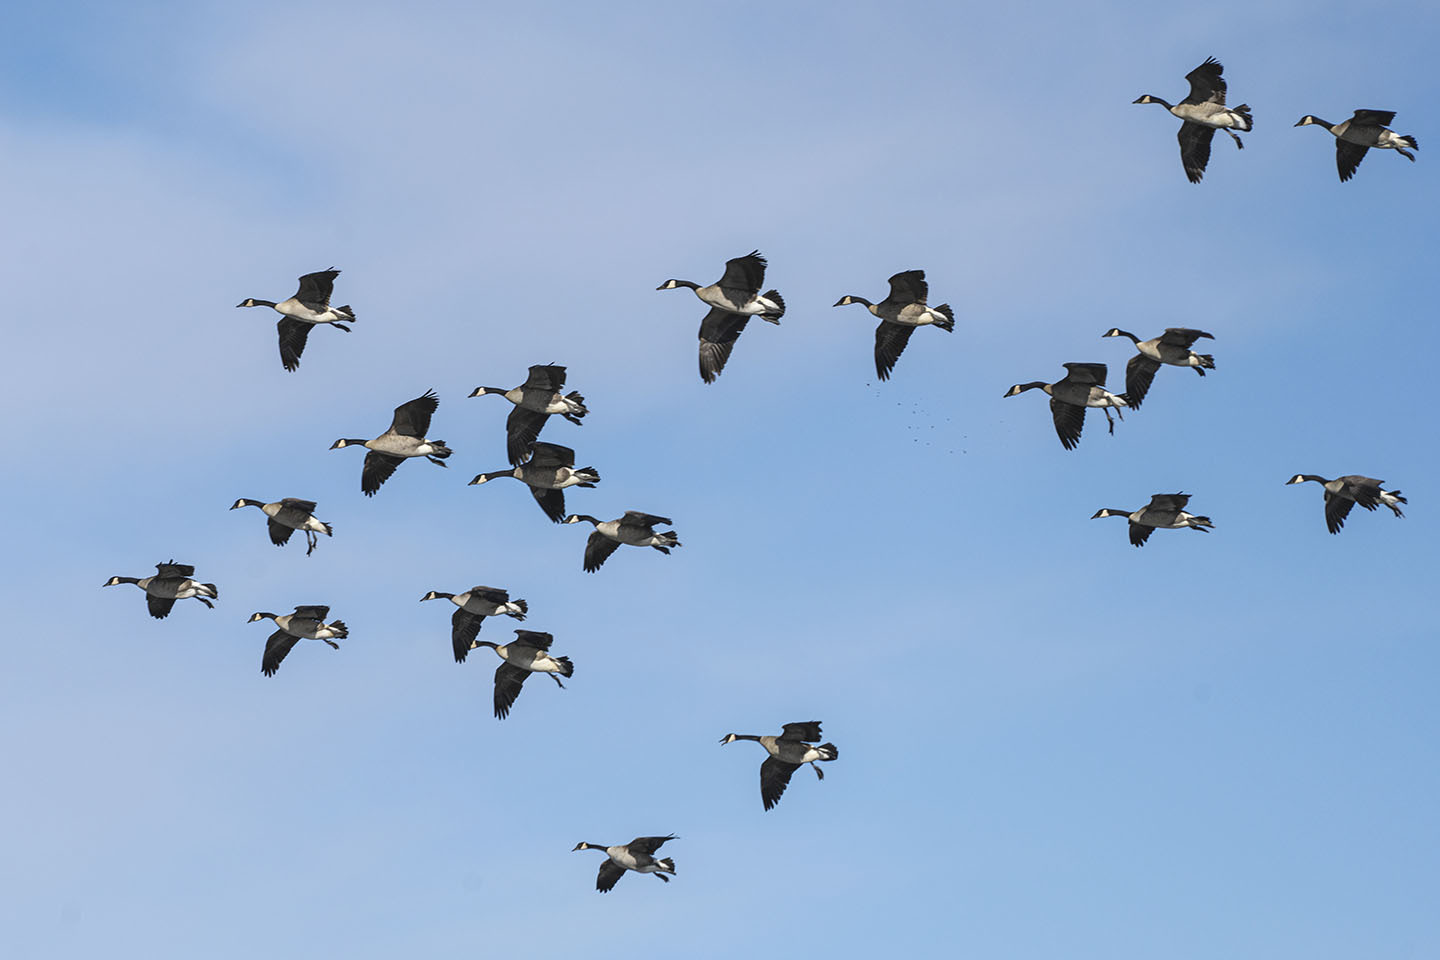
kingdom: Animalia
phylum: Chordata
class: Aves
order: Anseriformes
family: Anatidae
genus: Branta
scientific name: Branta canadensis
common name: Canada goose
